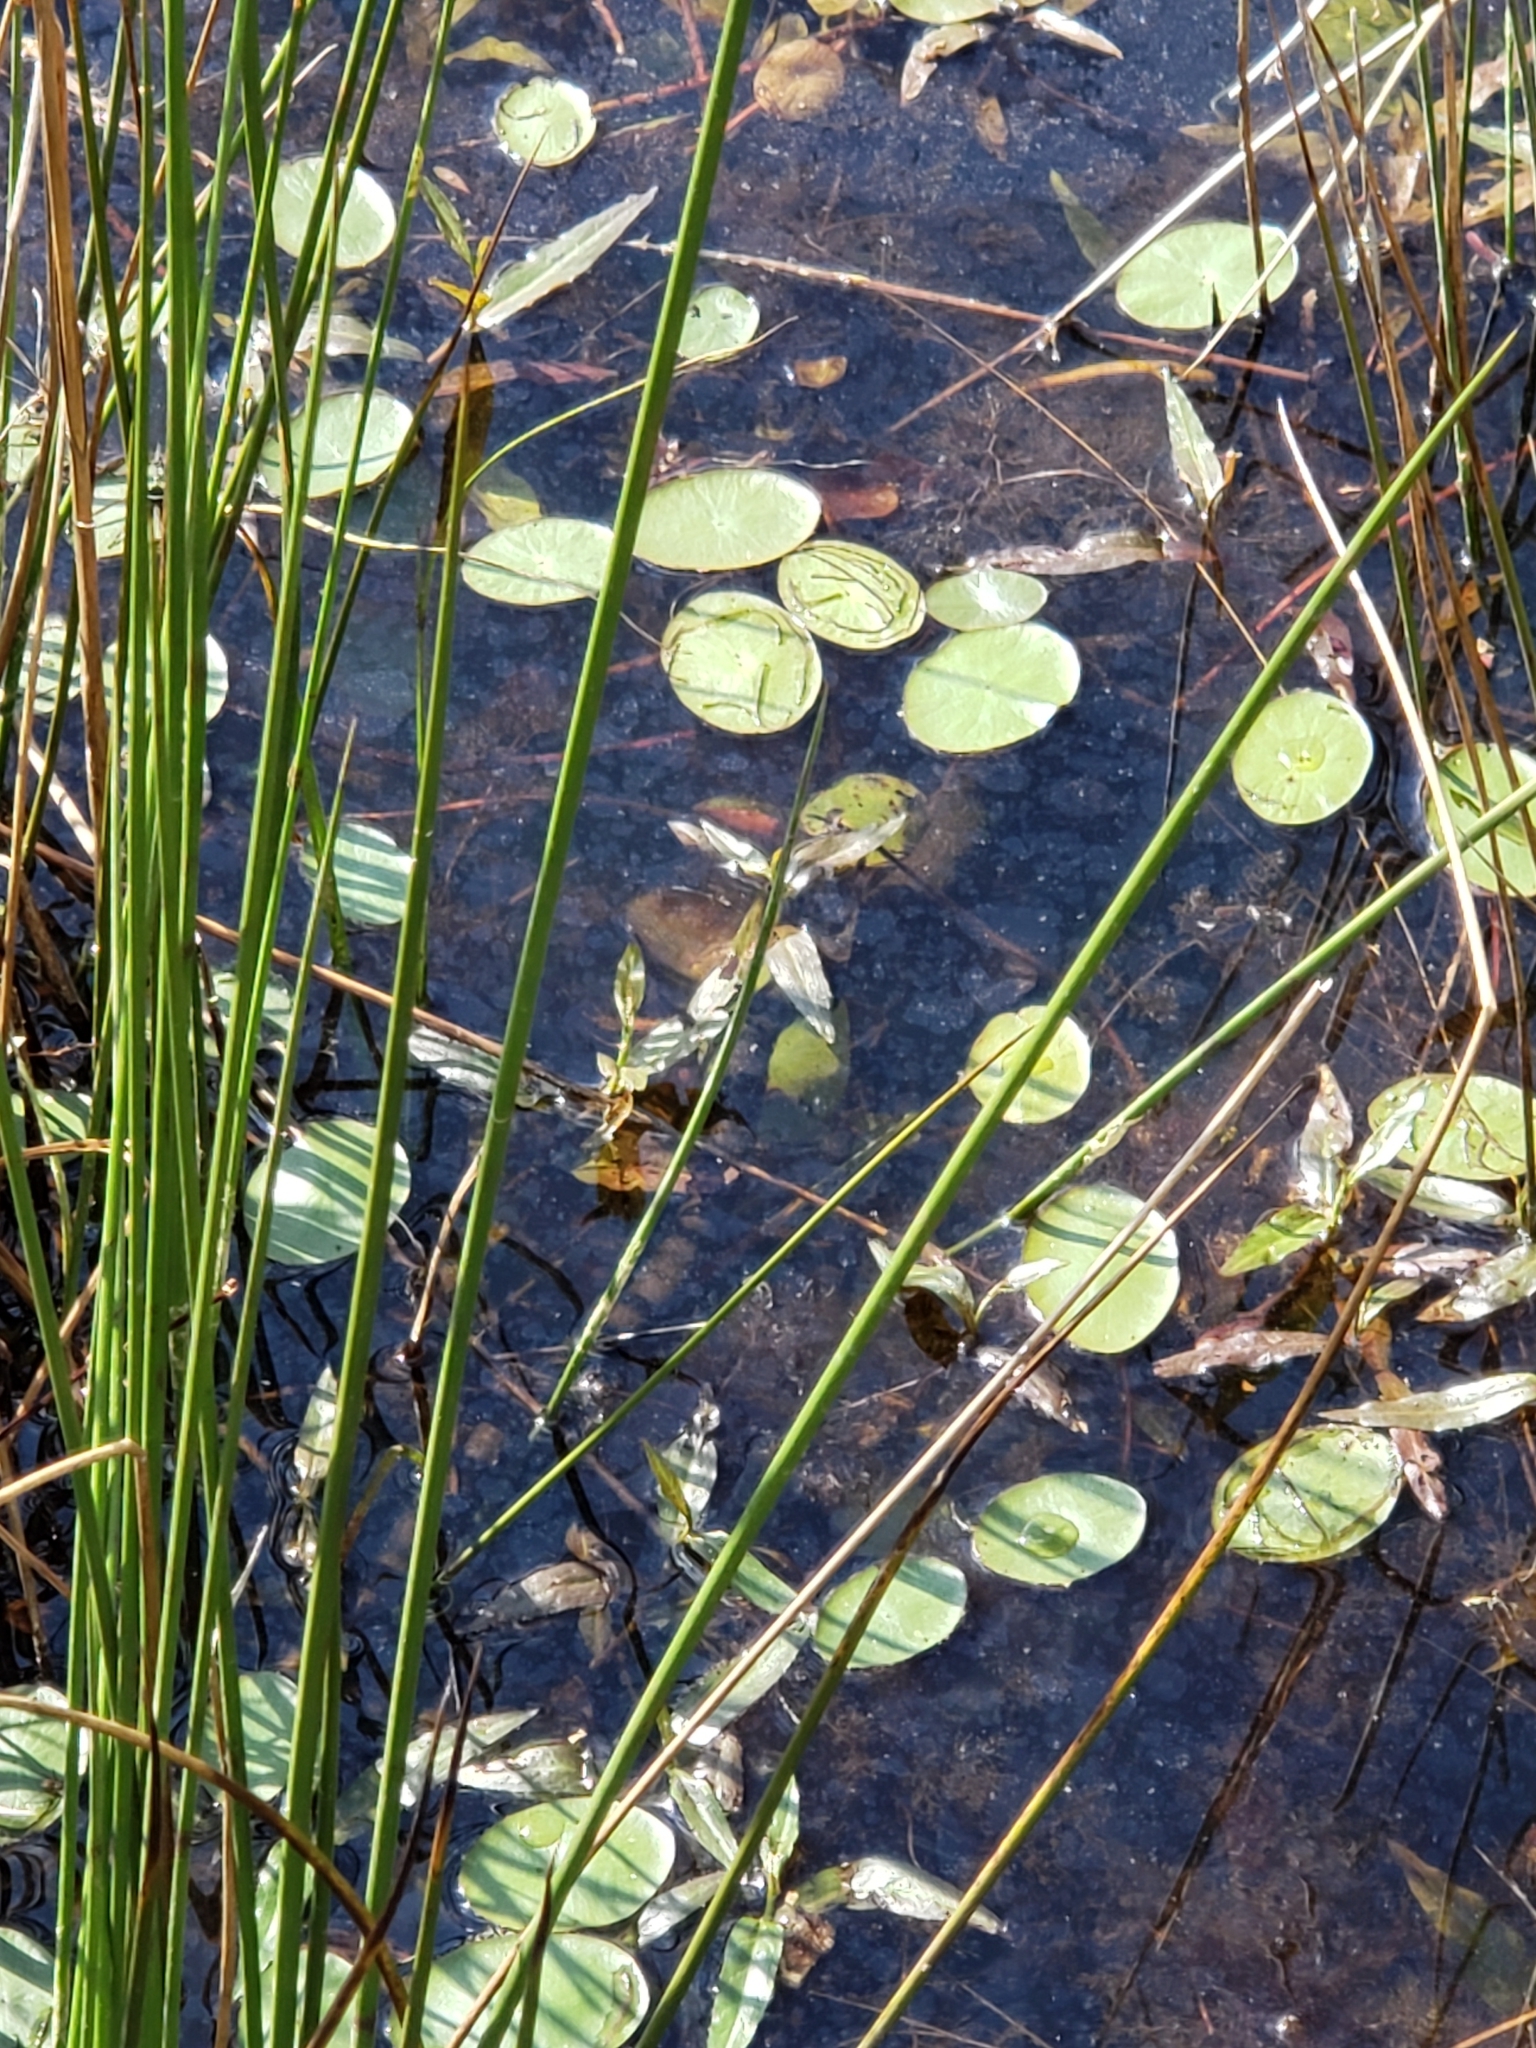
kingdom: Plantae
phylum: Tracheophyta
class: Magnoliopsida
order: Nymphaeales
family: Cabombaceae
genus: Brasenia
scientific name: Brasenia schreberi
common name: Water-shield
